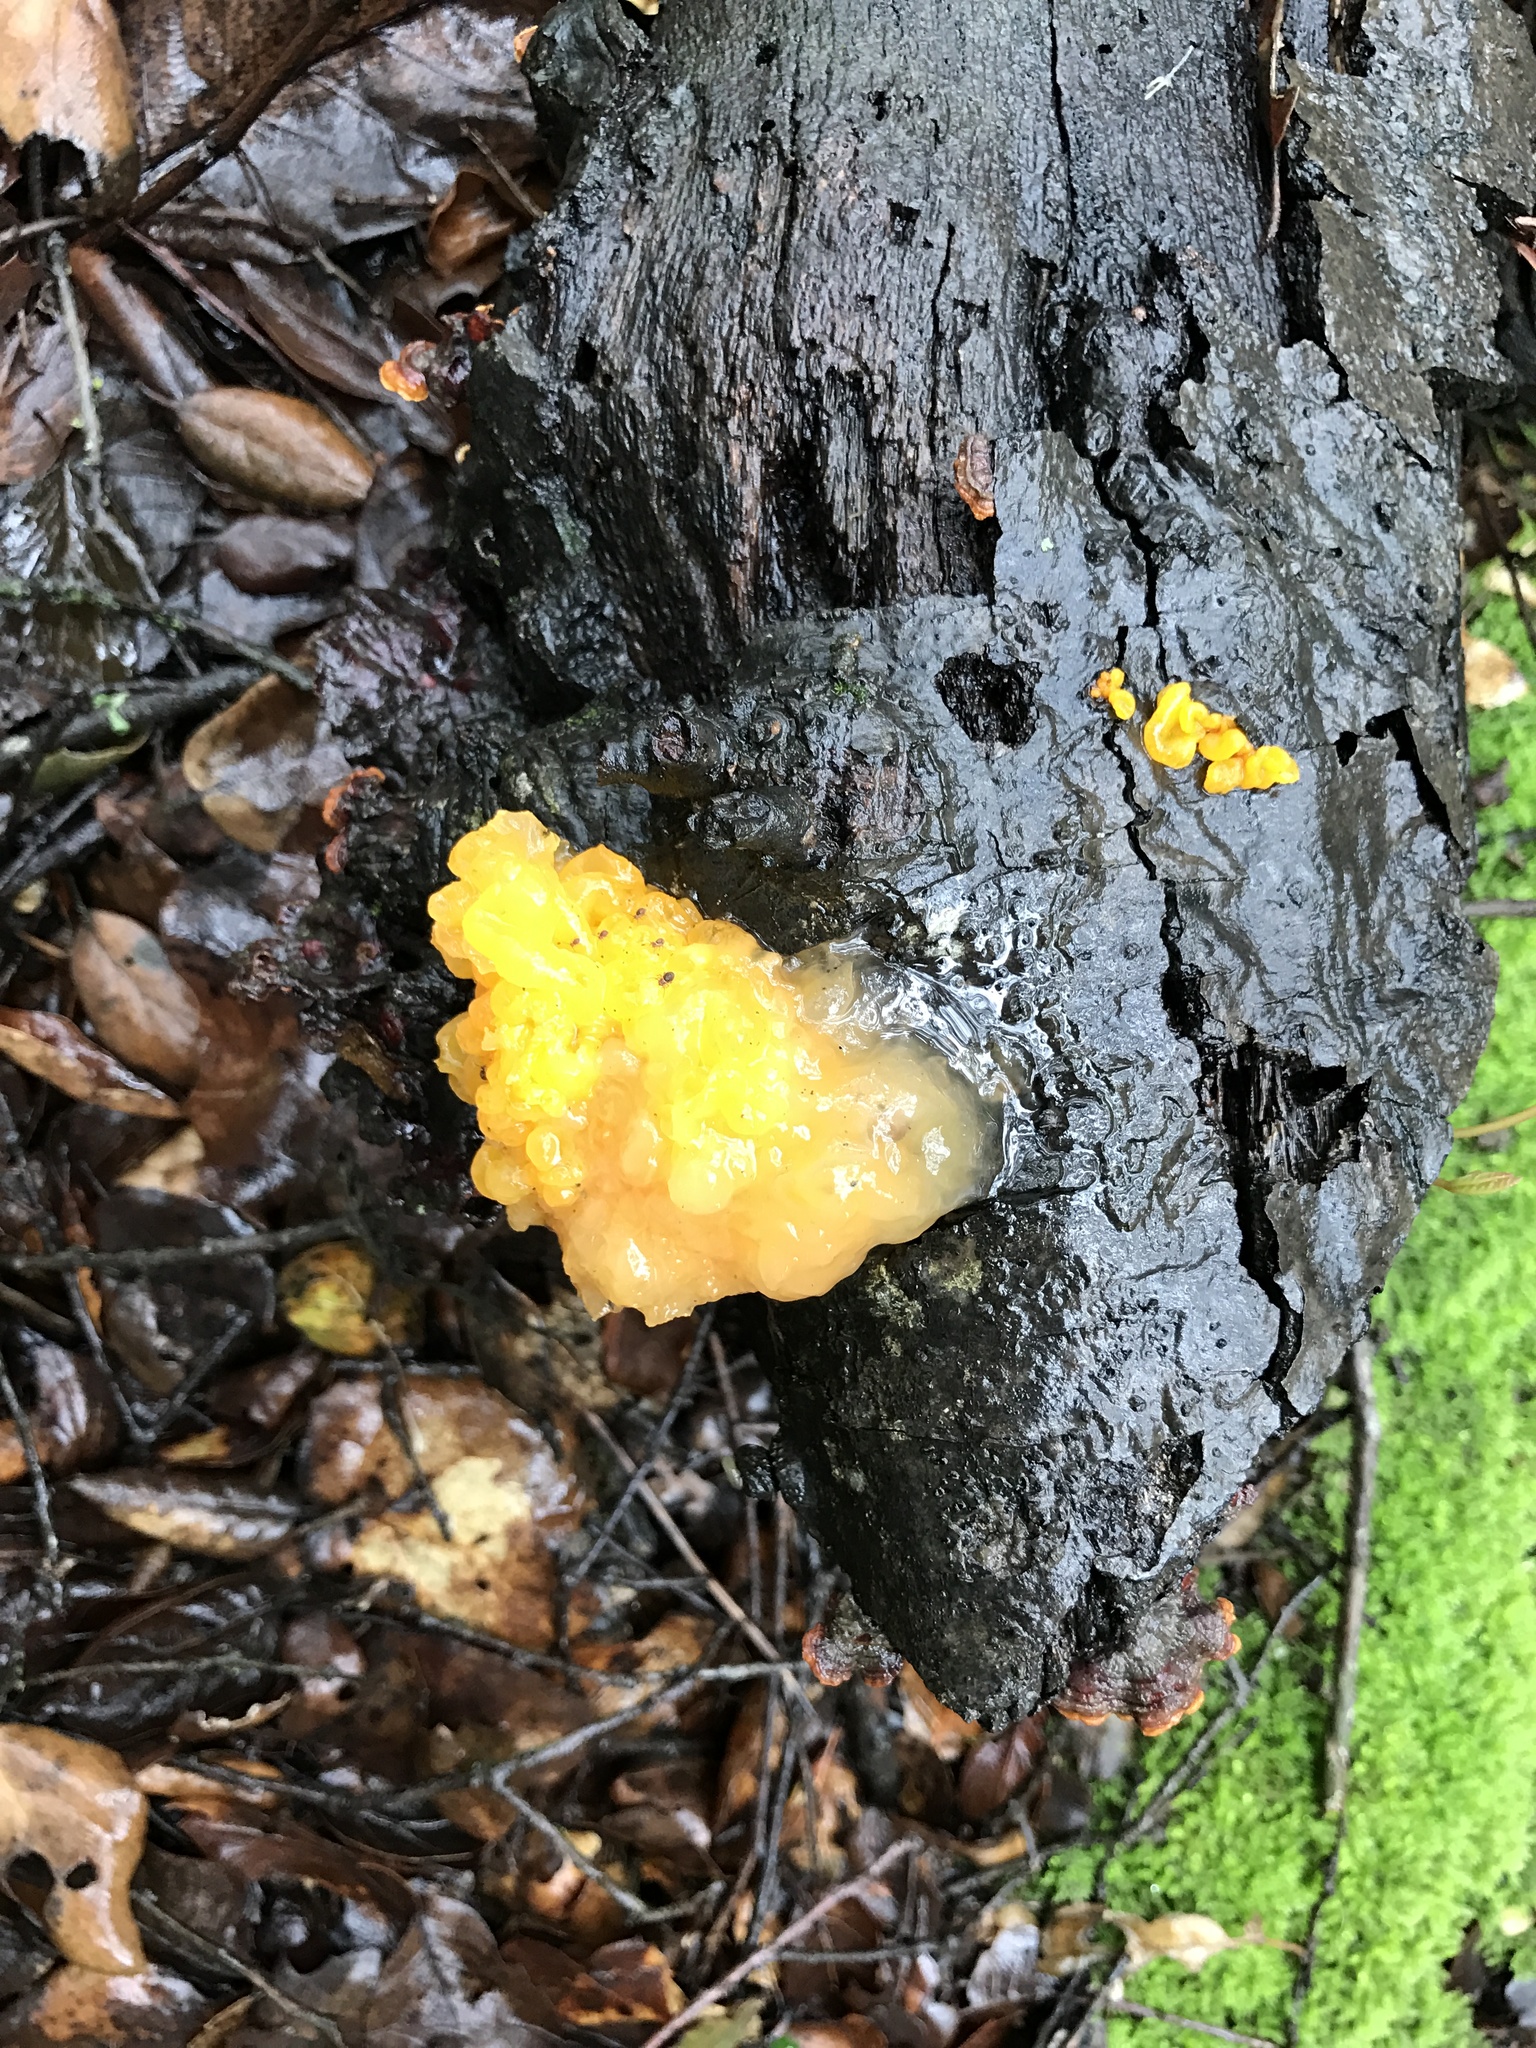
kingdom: Fungi
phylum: Basidiomycota
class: Tremellomycetes
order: Tremellales
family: Naemateliaceae
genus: Naematelia
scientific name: Naematelia aurantia
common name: Golden ear
